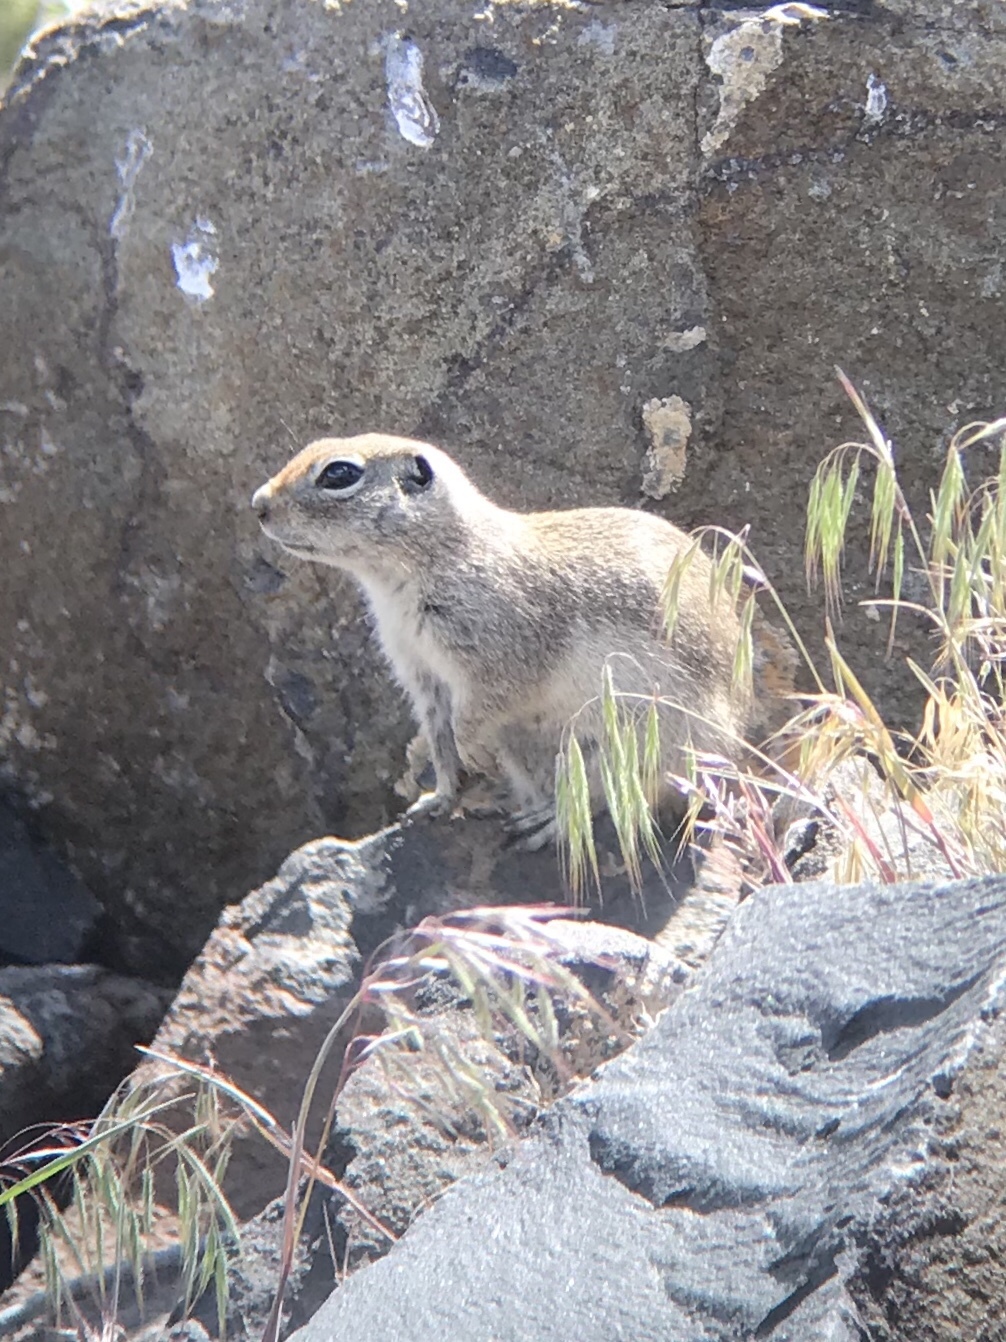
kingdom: Animalia
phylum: Chordata
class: Mammalia
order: Rodentia
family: Sciuridae
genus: Urocitellus
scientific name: Urocitellus townsendii
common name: Townsend's ground squirrel
